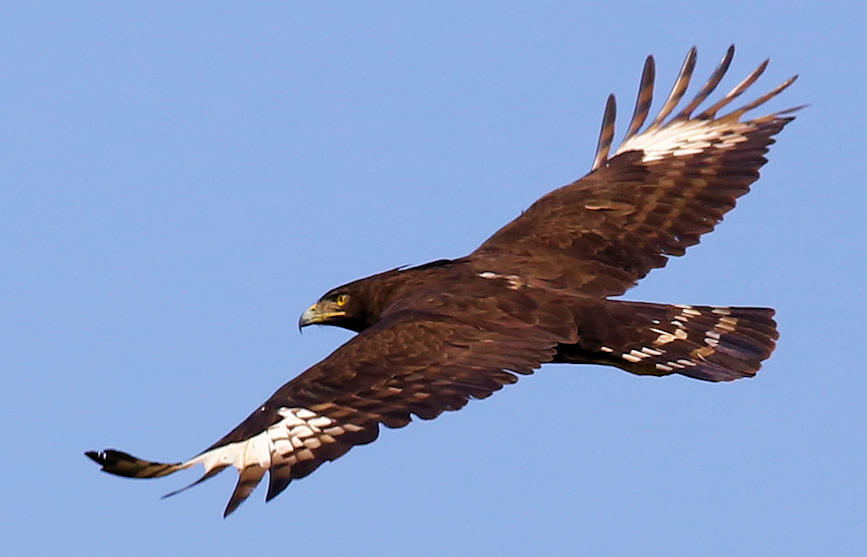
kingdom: Animalia
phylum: Chordata
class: Aves
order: Accipitriformes
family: Accipitridae
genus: Lophaetus
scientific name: Lophaetus occipitalis
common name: Long-crested eagle
